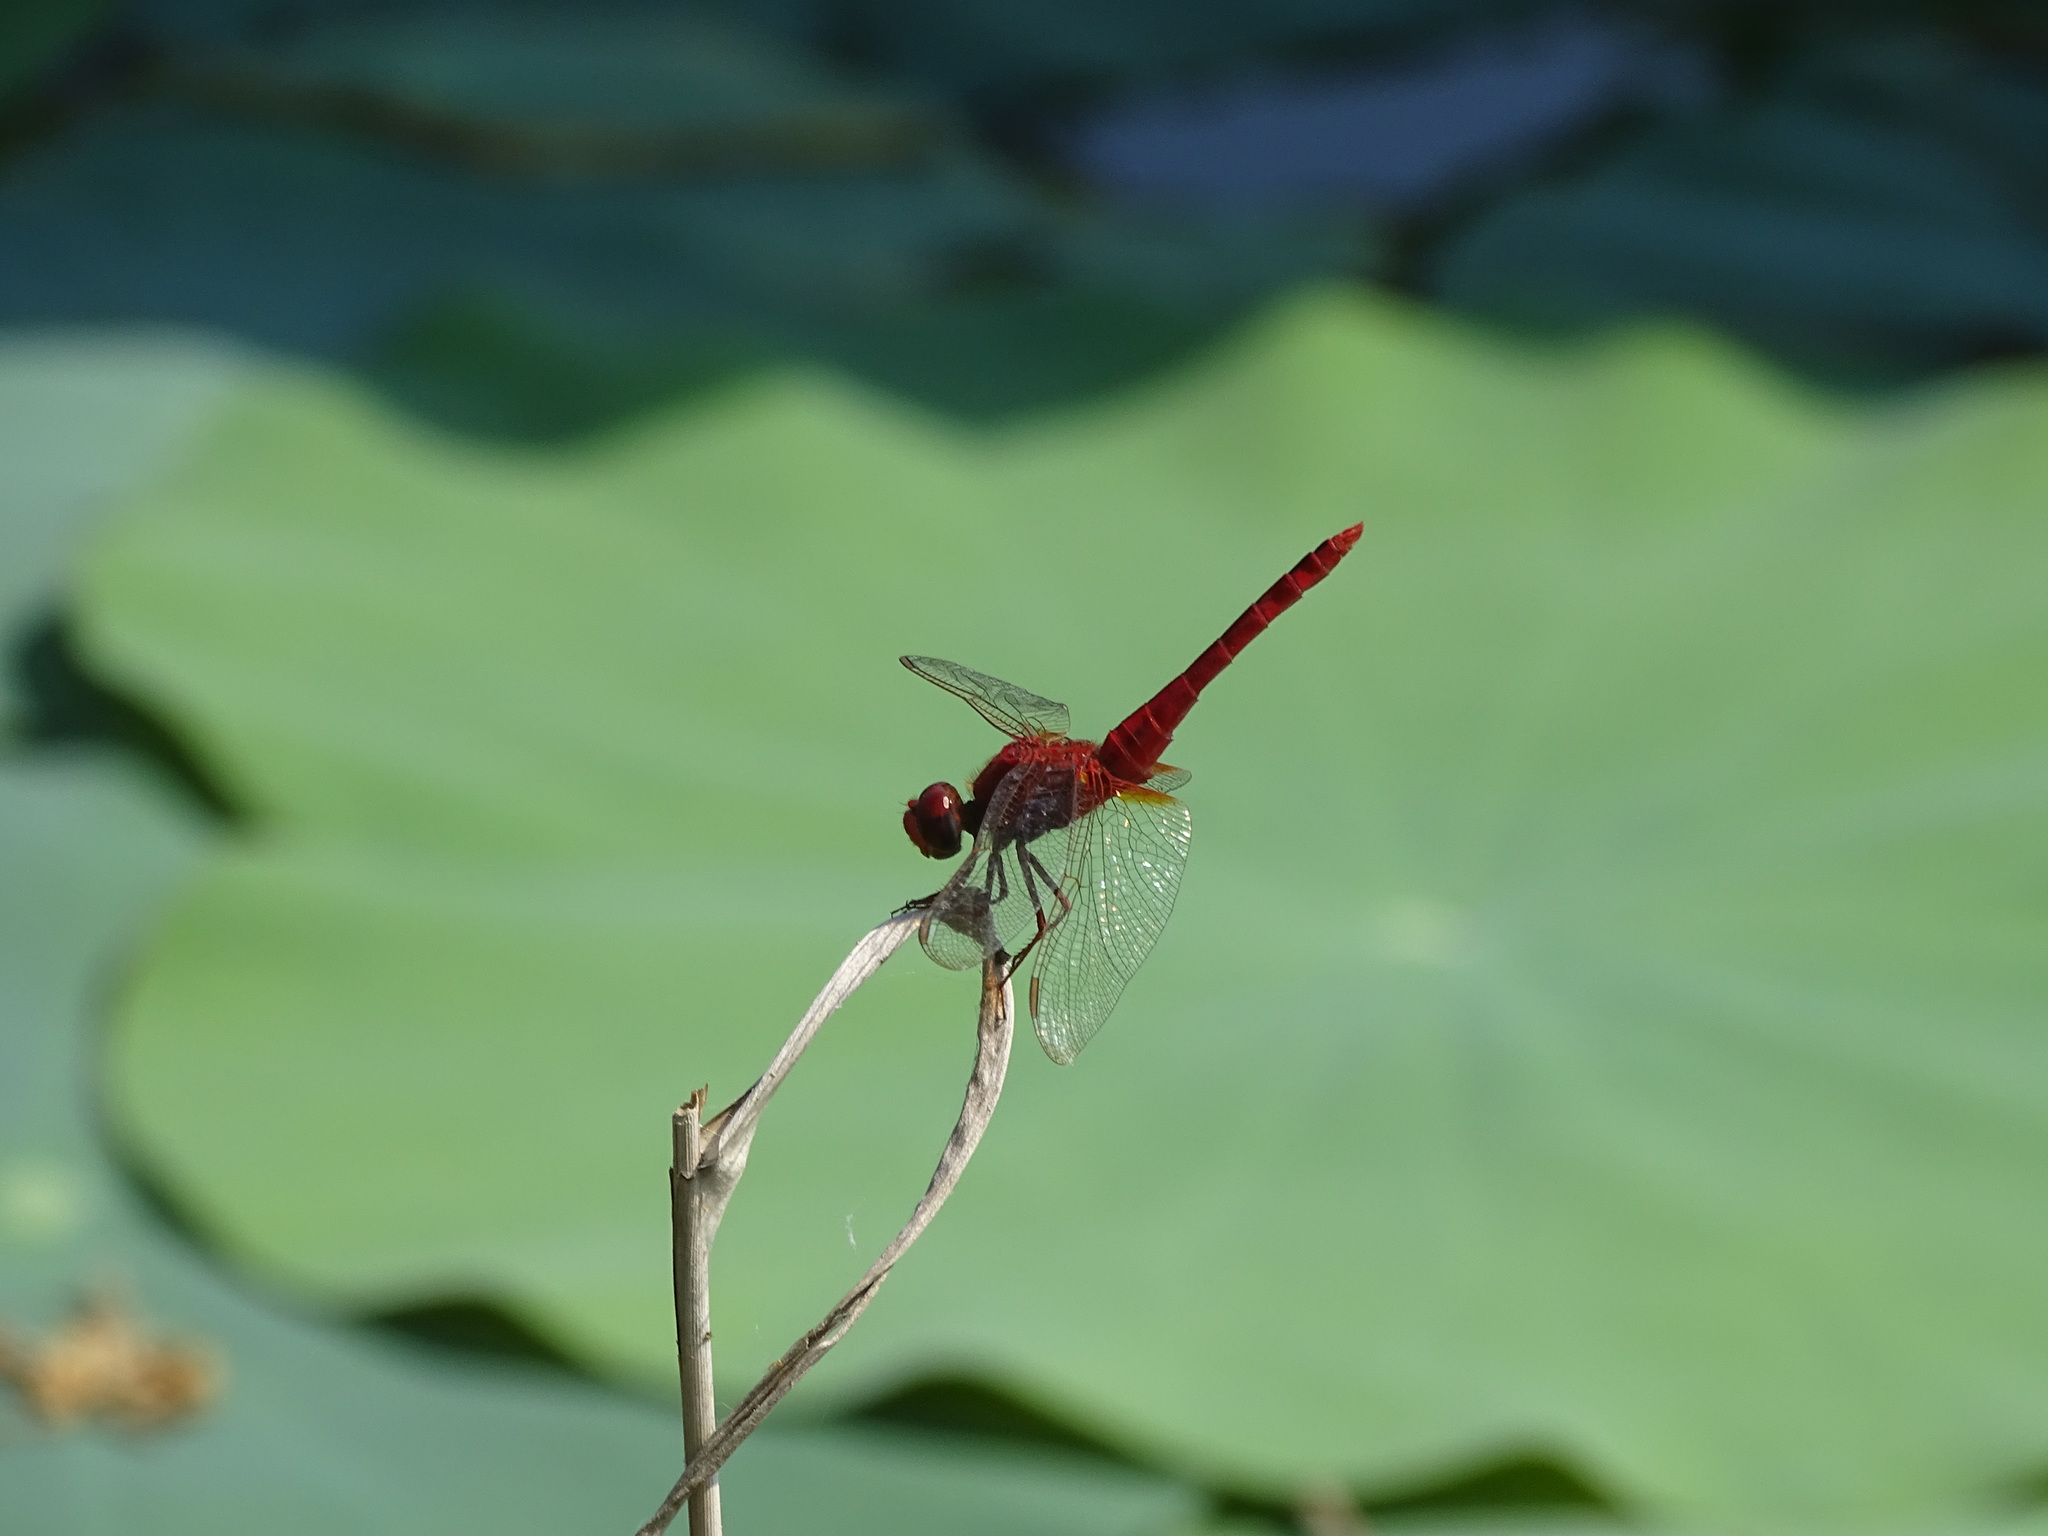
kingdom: Animalia
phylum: Arthropoda
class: Insecta
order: Odonata
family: Libellulidae
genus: Crocothemis
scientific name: Crocothemis servilia
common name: Scarlet skimmer
